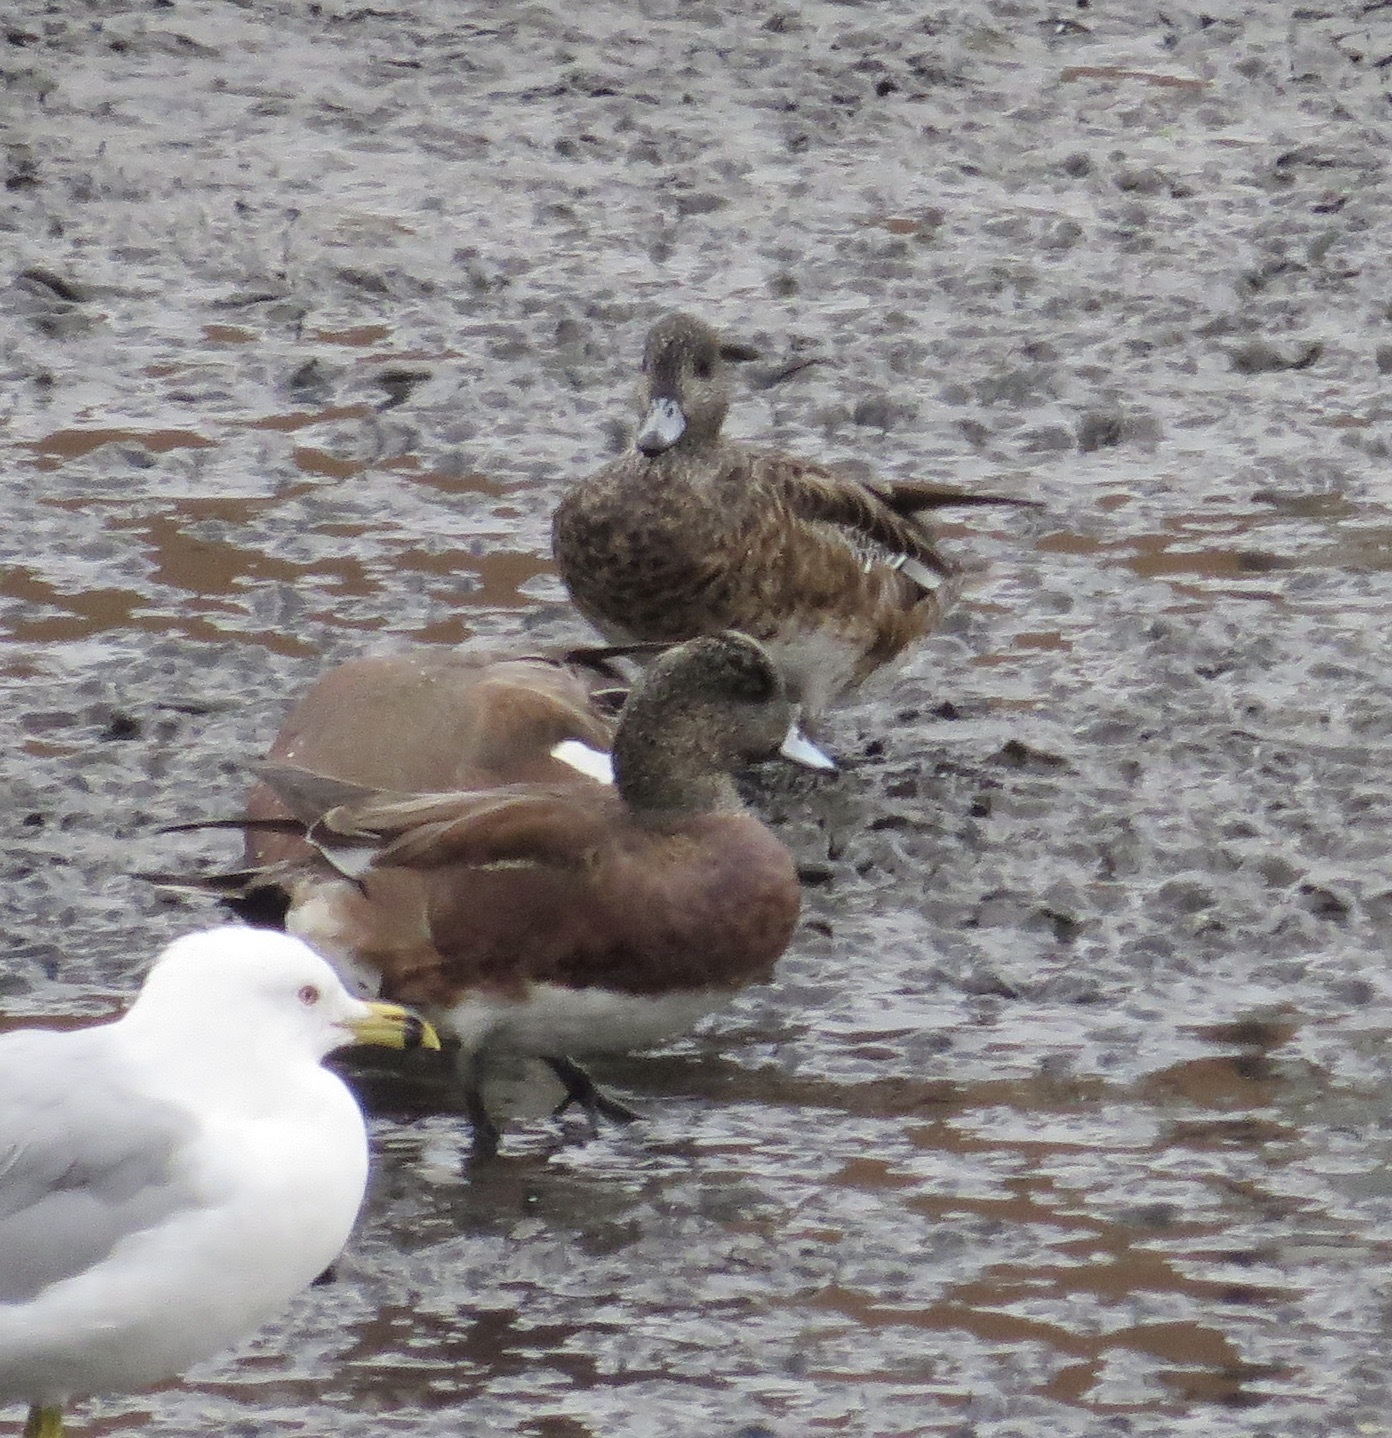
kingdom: Animalia
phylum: Chordata
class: Aves
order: Anseriformes
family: Anatidae
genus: Mareca
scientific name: Mareca americana
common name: American wigeon
